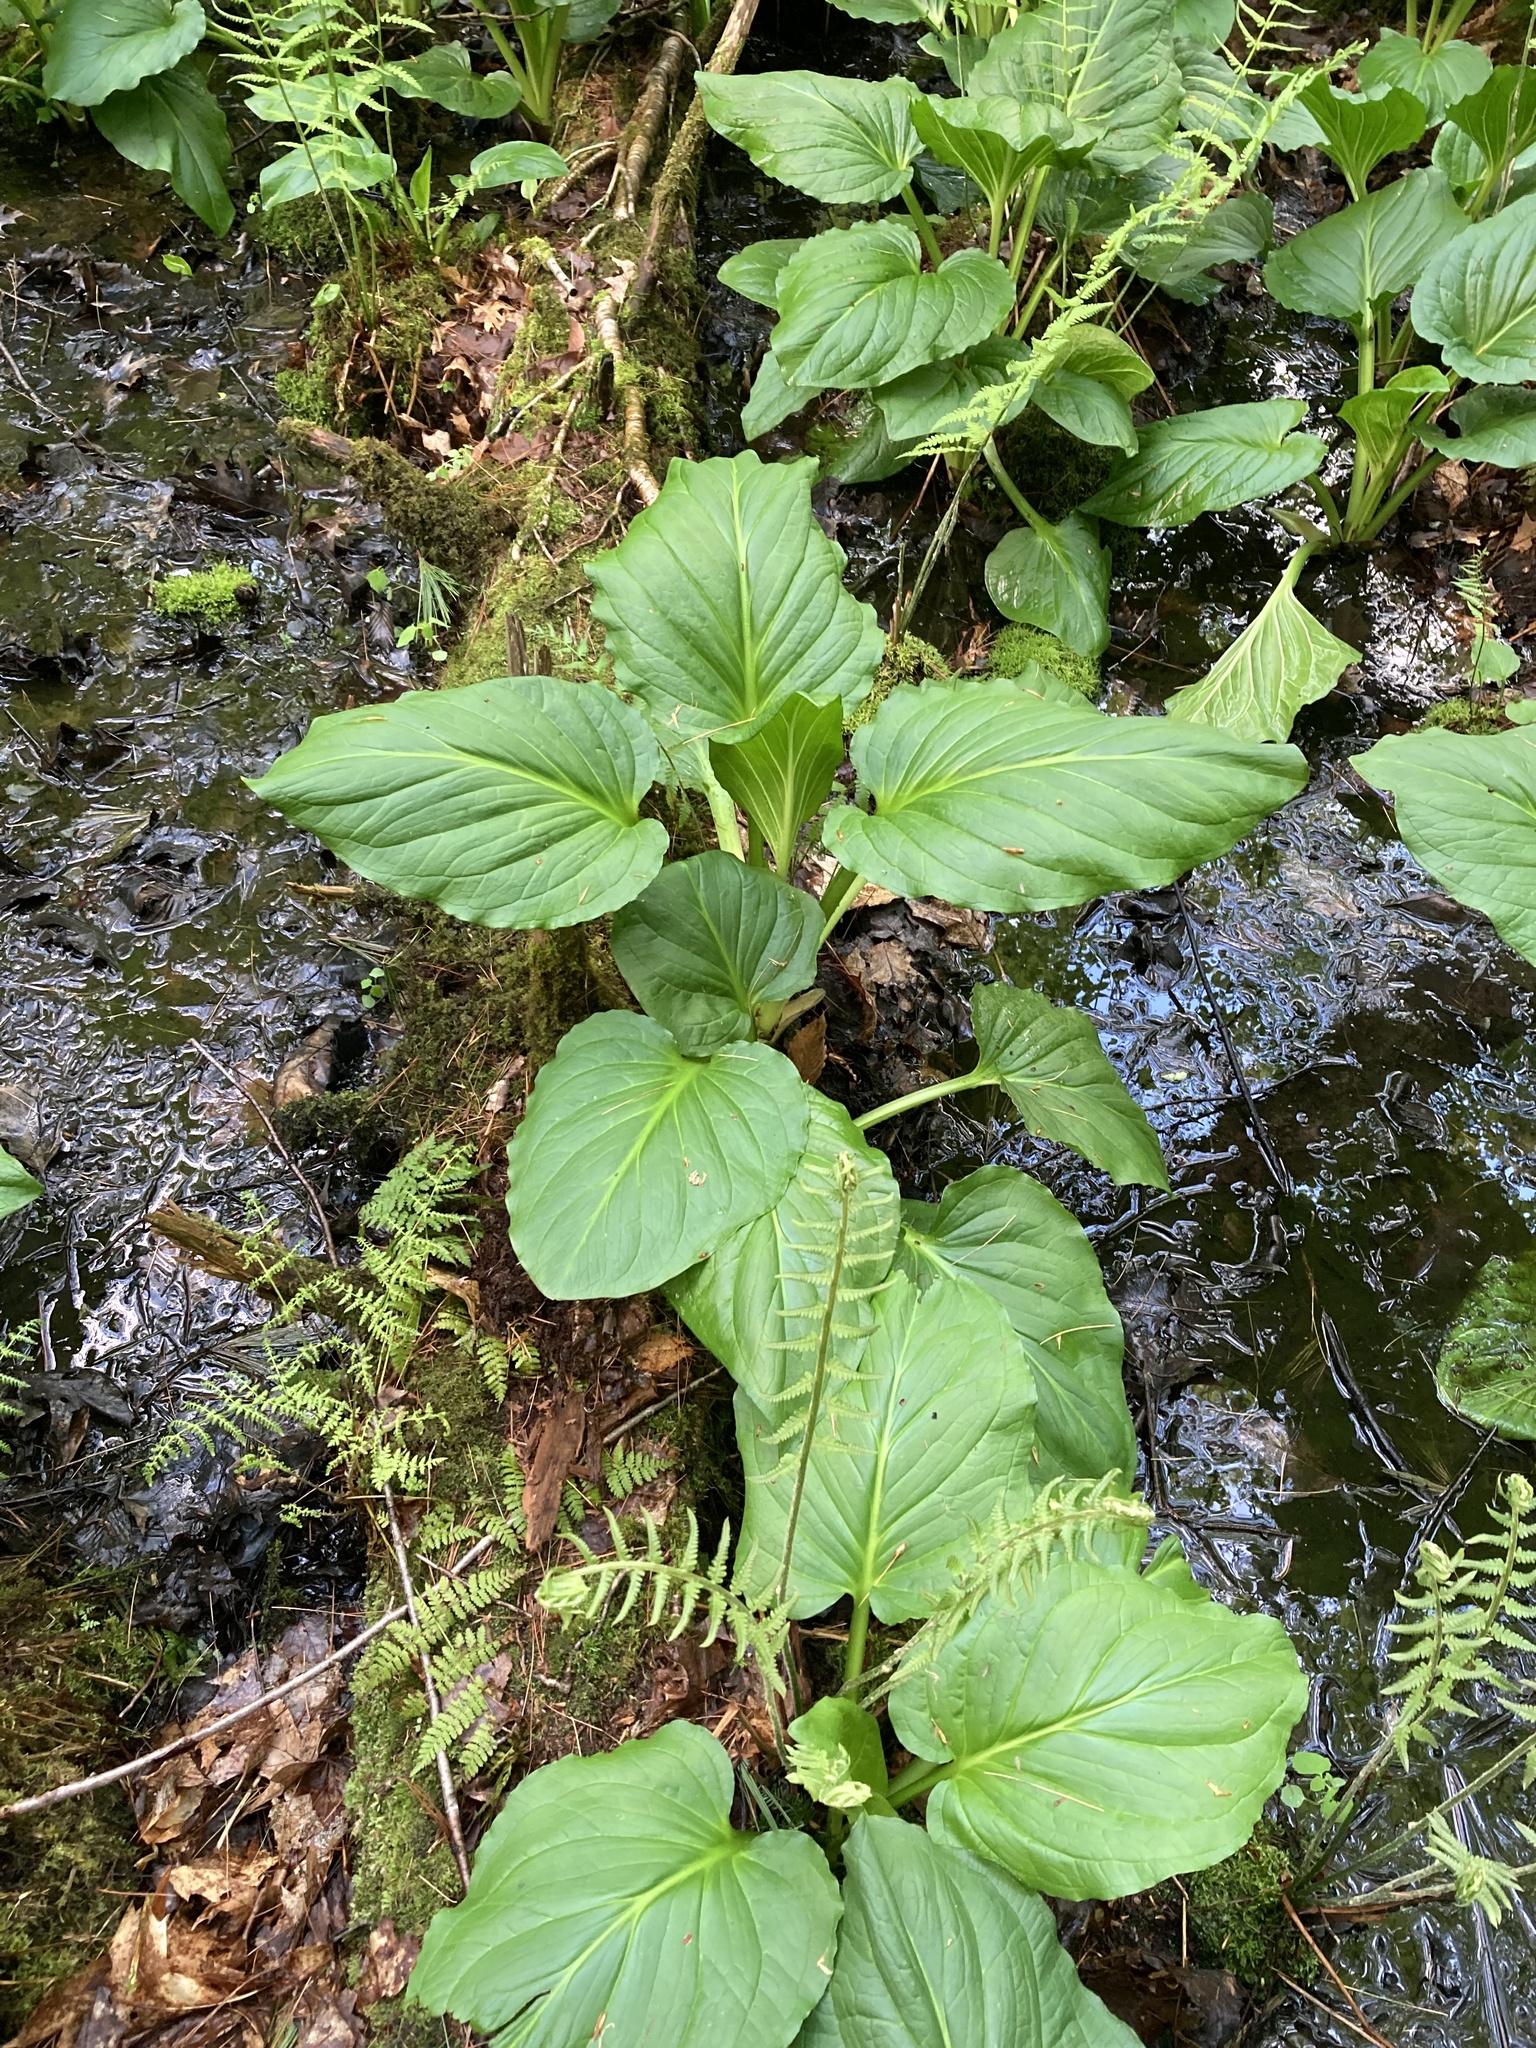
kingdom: Plantae
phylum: Tracheophyta
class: Liliopsida
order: Alismatales
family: Araceae
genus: Symplocarpus
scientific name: Symplocarpus foetidus
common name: Eastern skunk cabbage
